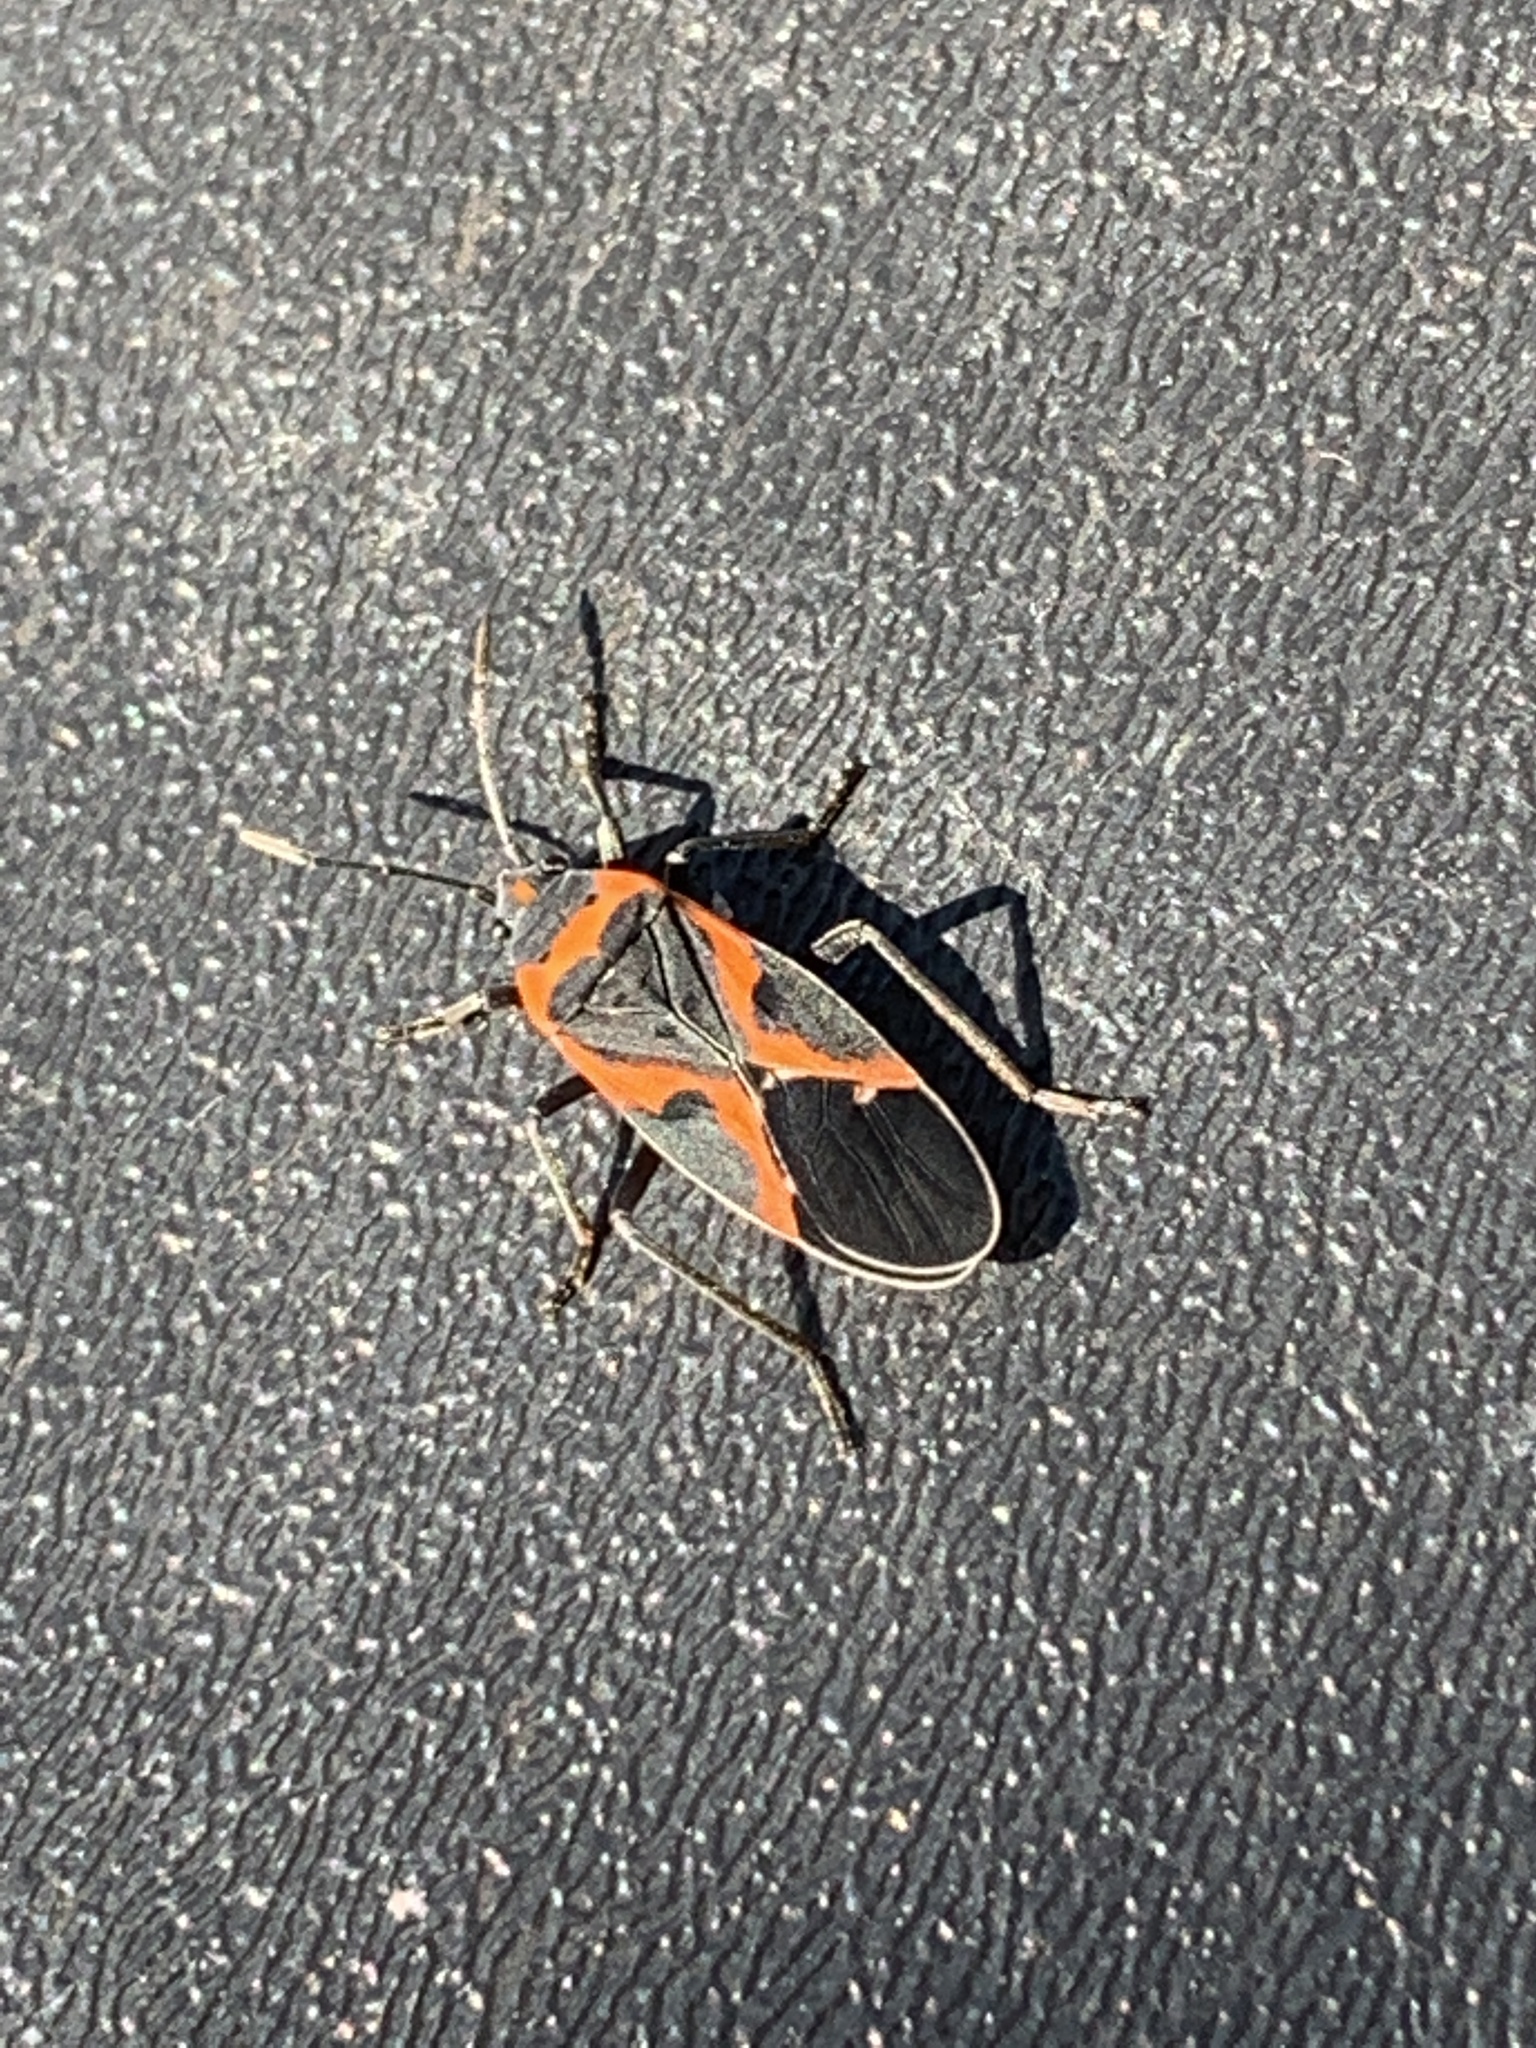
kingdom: Animalia
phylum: Arthropoda
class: Insecta
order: Hemiptera
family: Lygaeidae
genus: Lygaeus
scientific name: Lygaeus kalmii
